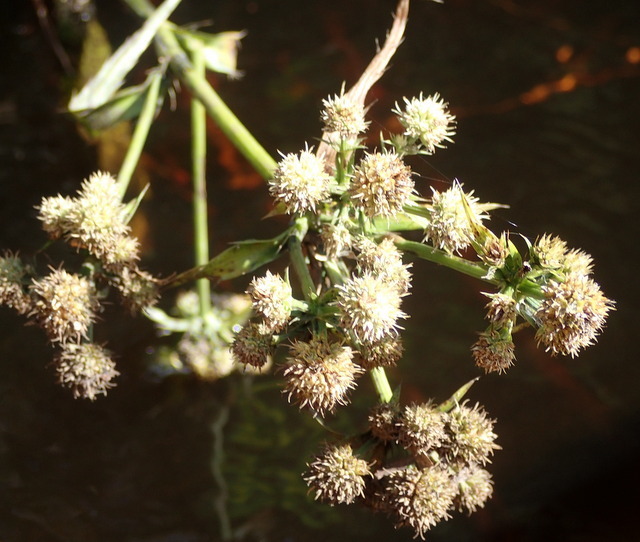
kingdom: Plantae
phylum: Tracheophyta
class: Magnoliopsida
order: Apiales
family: Apiaceae
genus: Eryngium
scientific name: Eryngium yuccifolium
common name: Button eryngo
